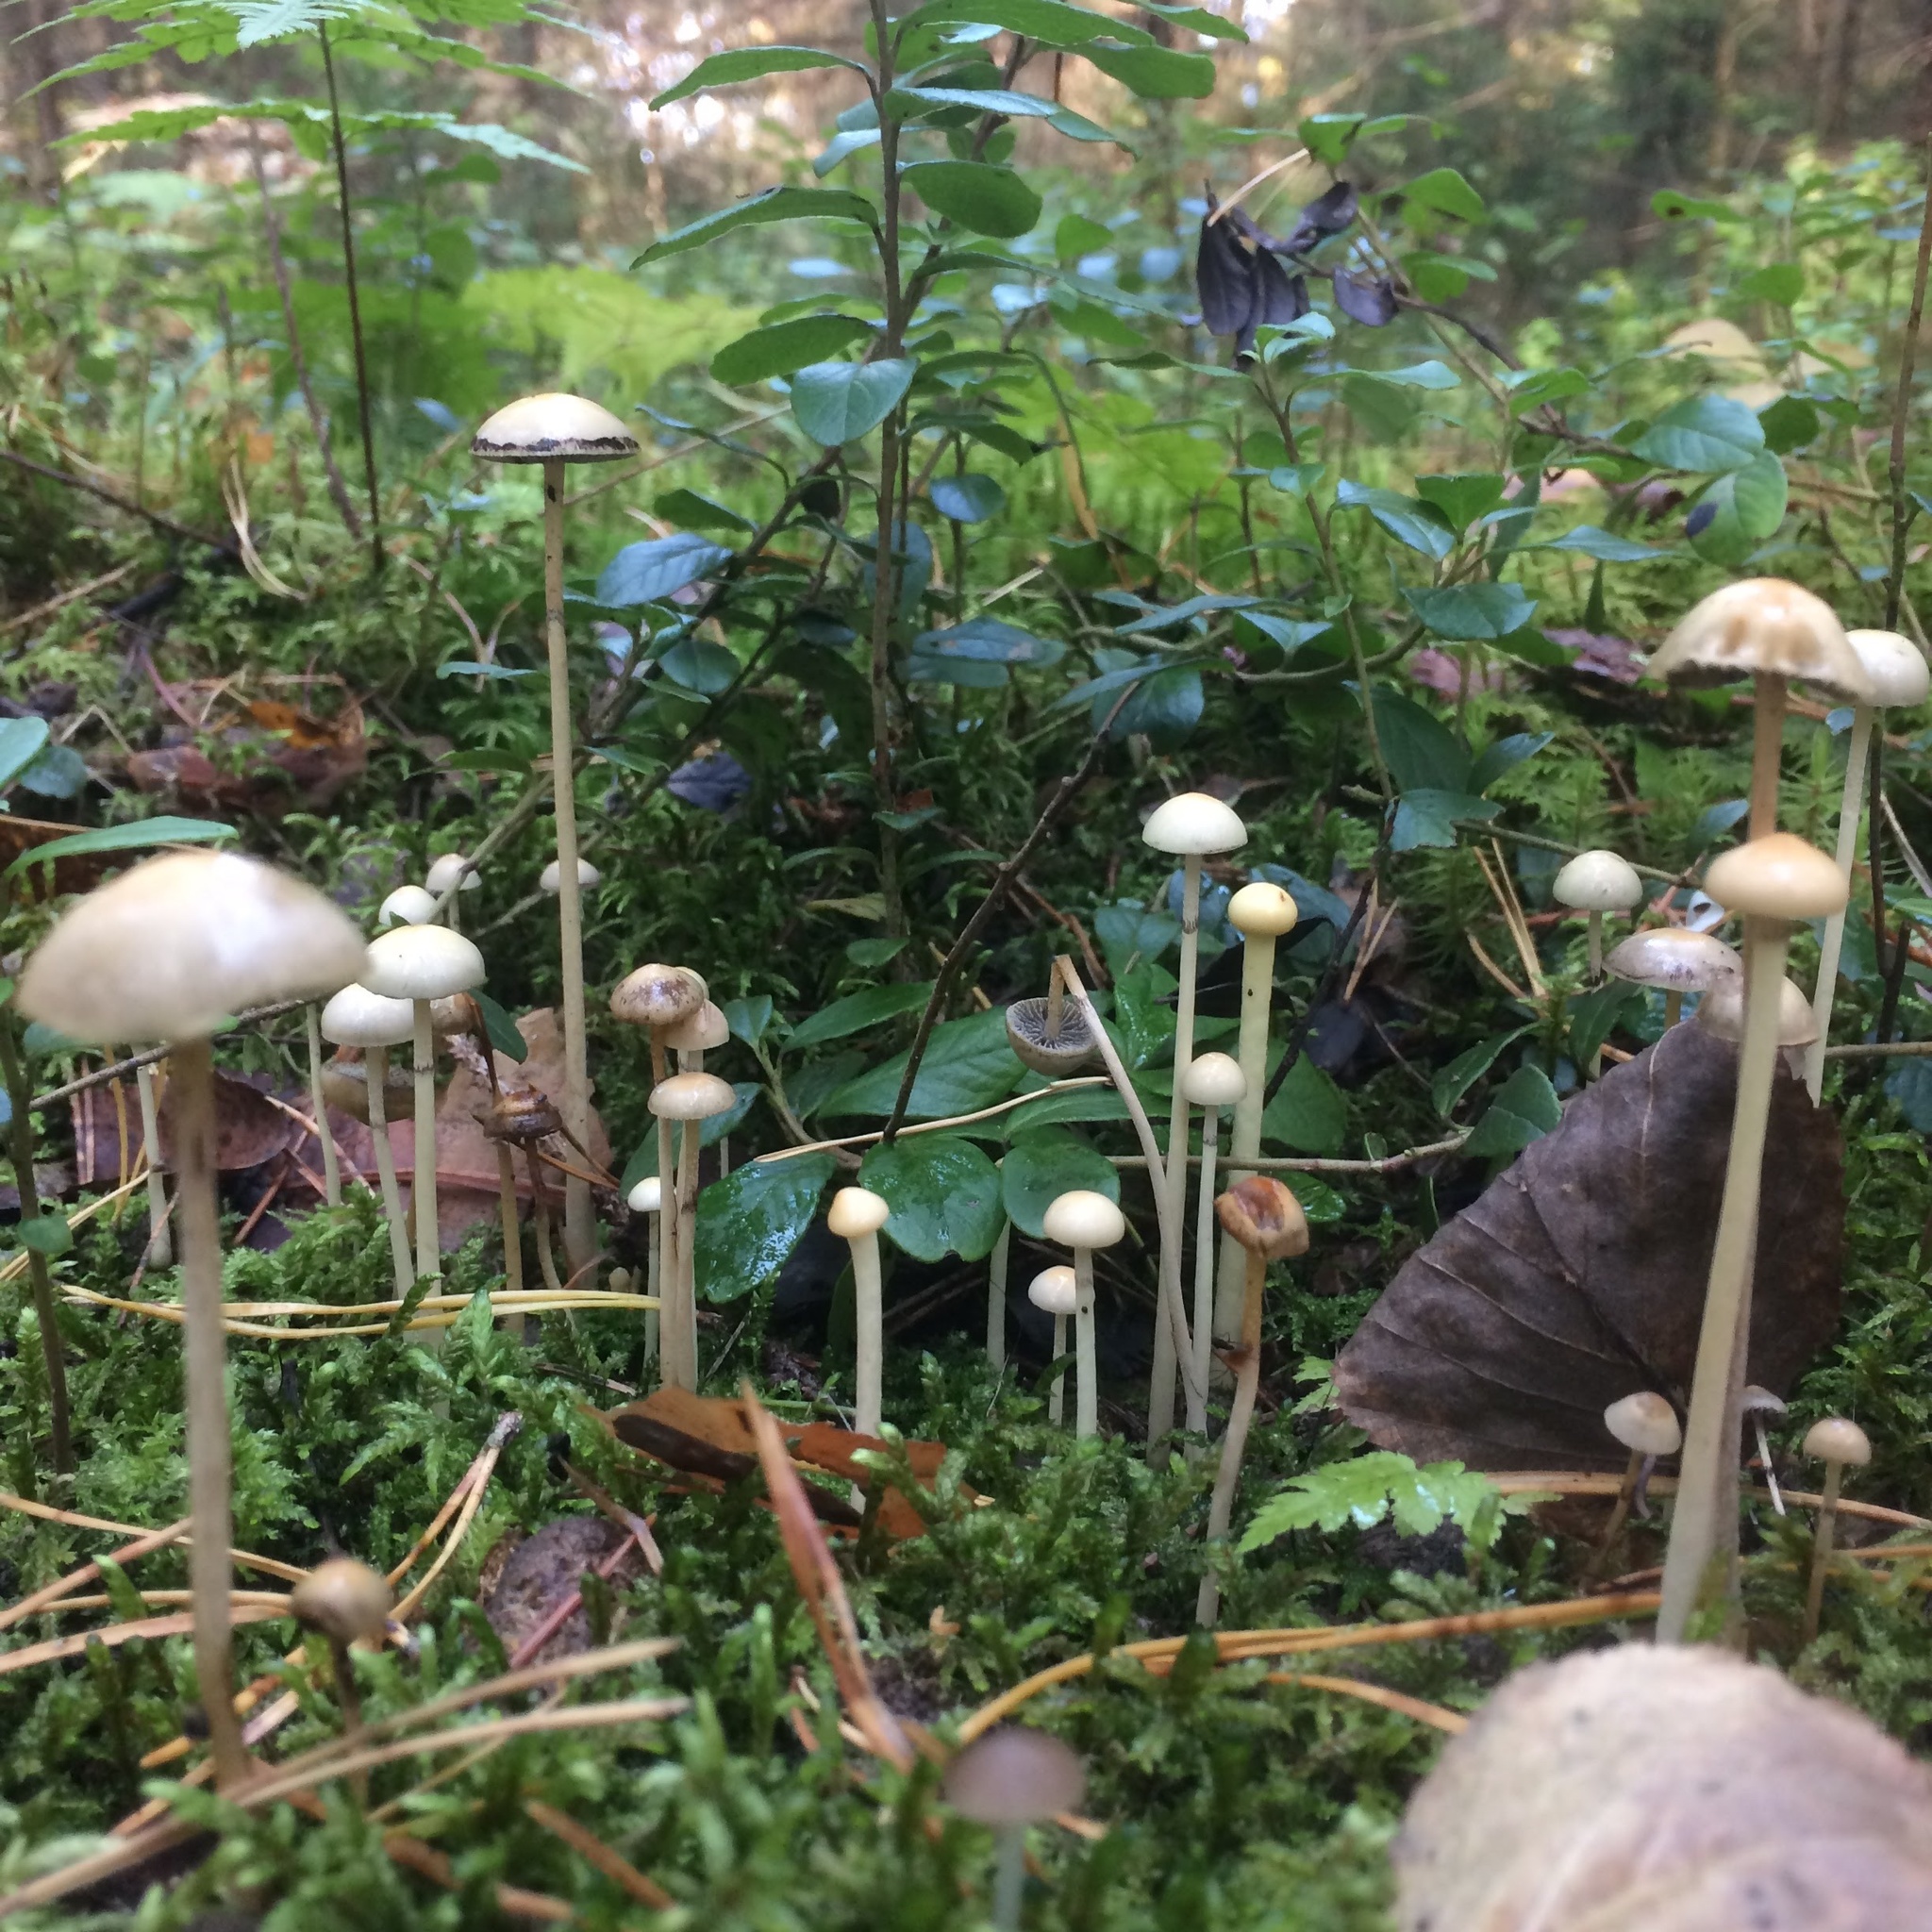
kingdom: Fungi
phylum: Basidiomycota
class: Agaricomycetes
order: Agaricales
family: Strophariaceae
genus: Protostropharia
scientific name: Protostropharia semiglobata
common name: Dung roundhead
